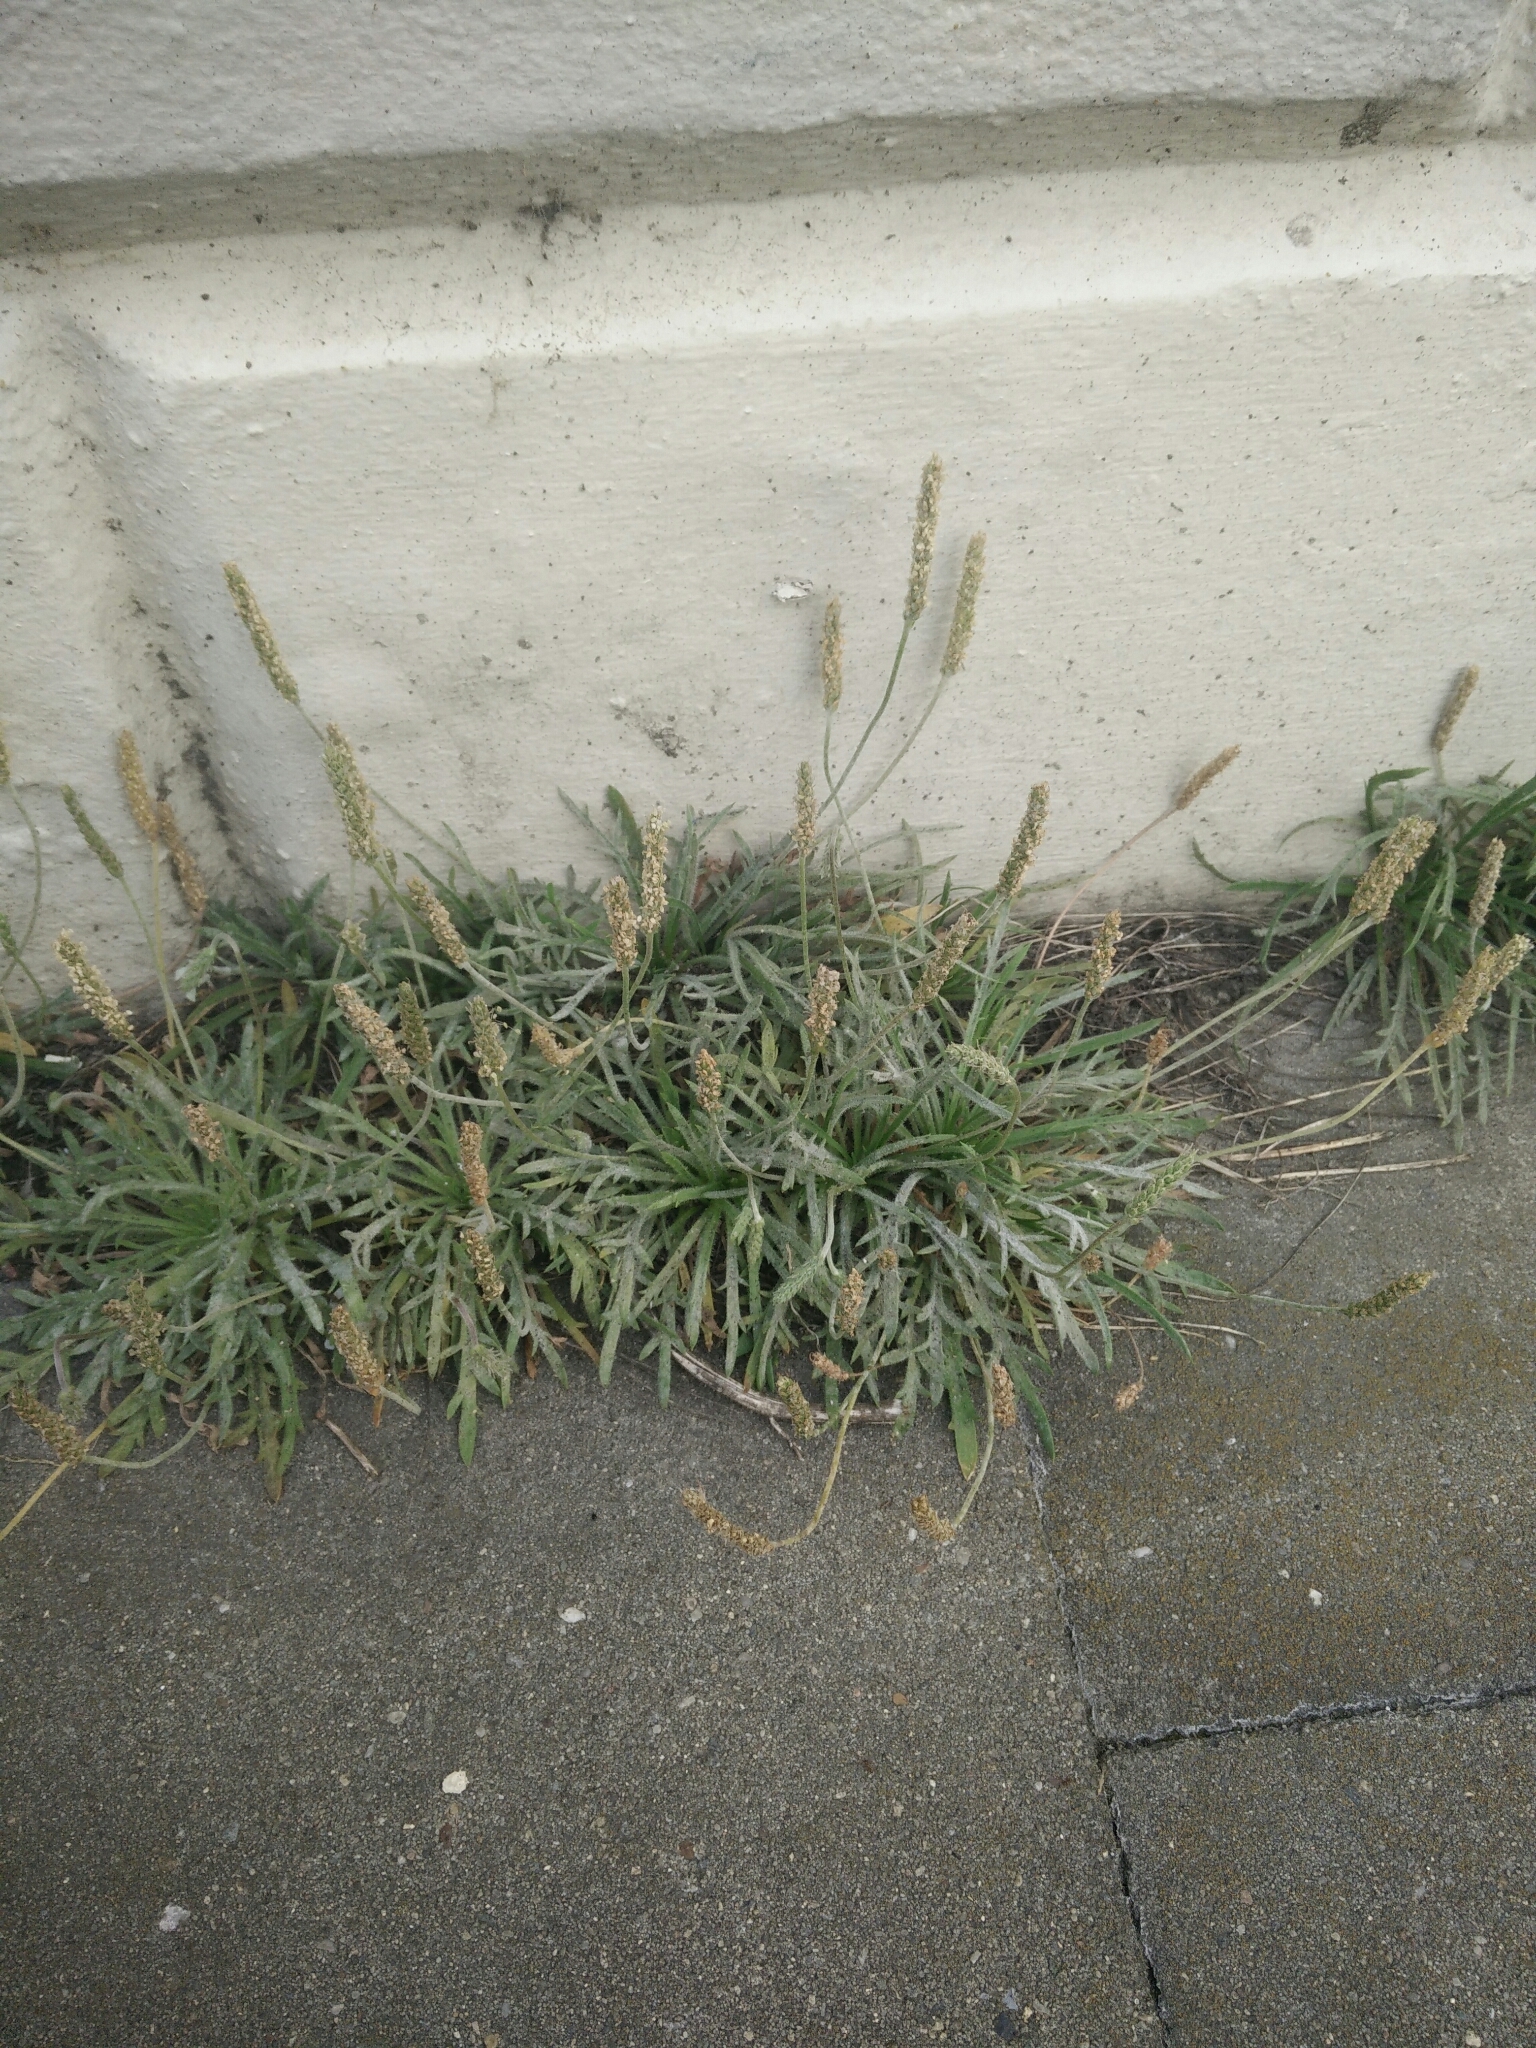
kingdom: Plantae
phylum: Tracheophyta
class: Magnoliopsida
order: Lamiales
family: Plantaginaceae
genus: Plantago
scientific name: Plantago coronopus
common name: Buck's-horn plantain
